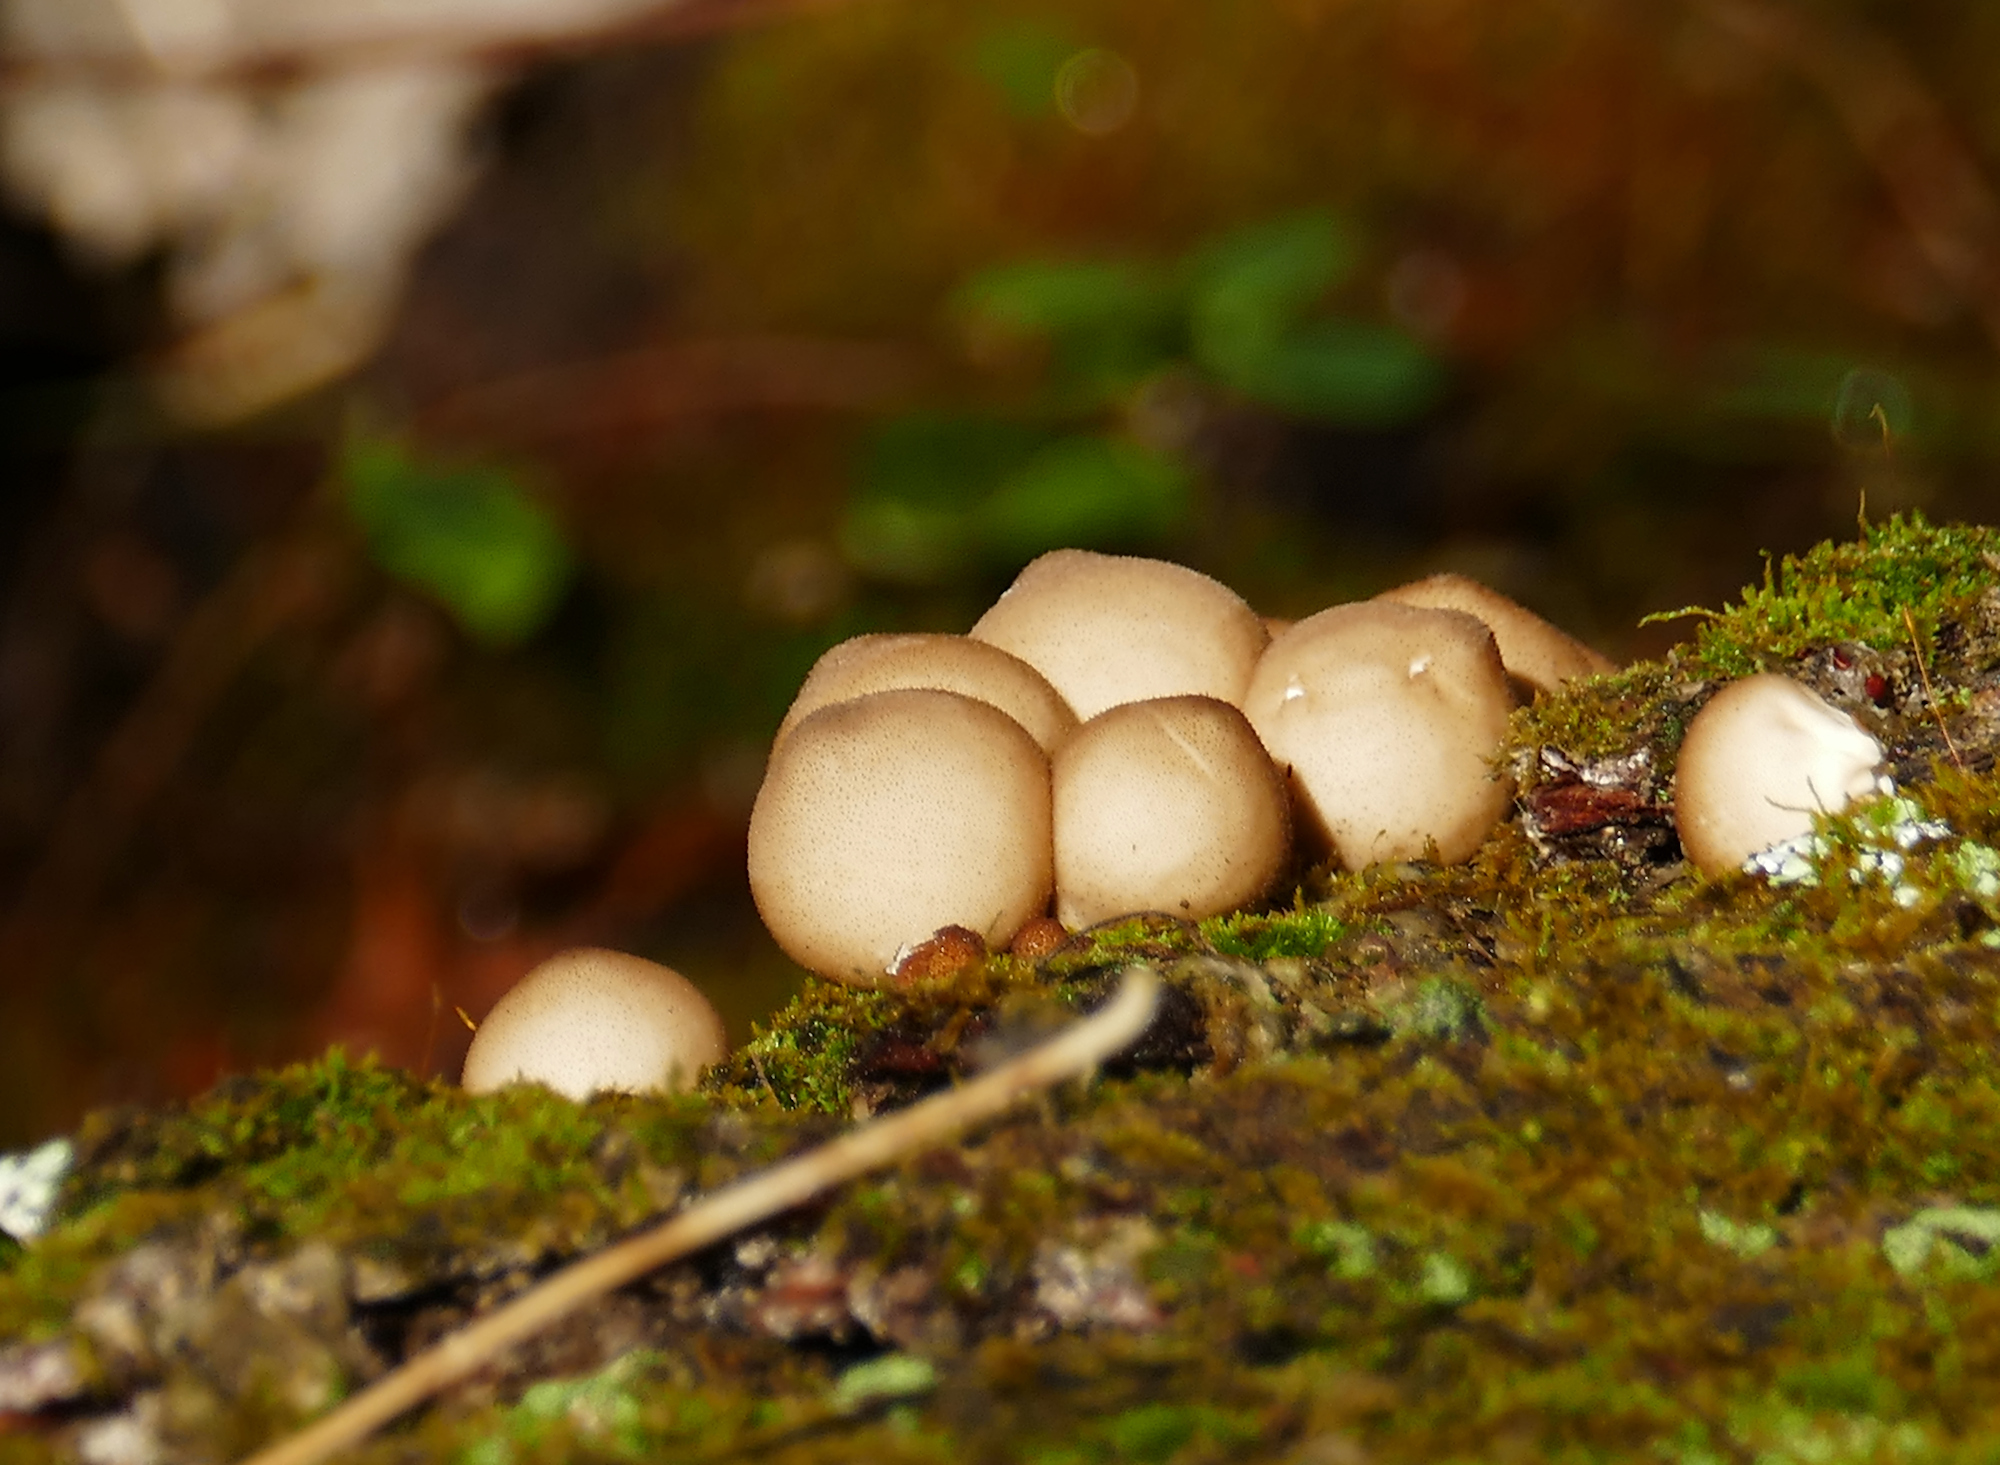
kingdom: Fungi
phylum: Basidiomycota
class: Agaricomycetes
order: Agaricales
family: Lycoperdaceae
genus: Apioperdon
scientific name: Apioperdon pyriforme
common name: Pear-shaped puffball
